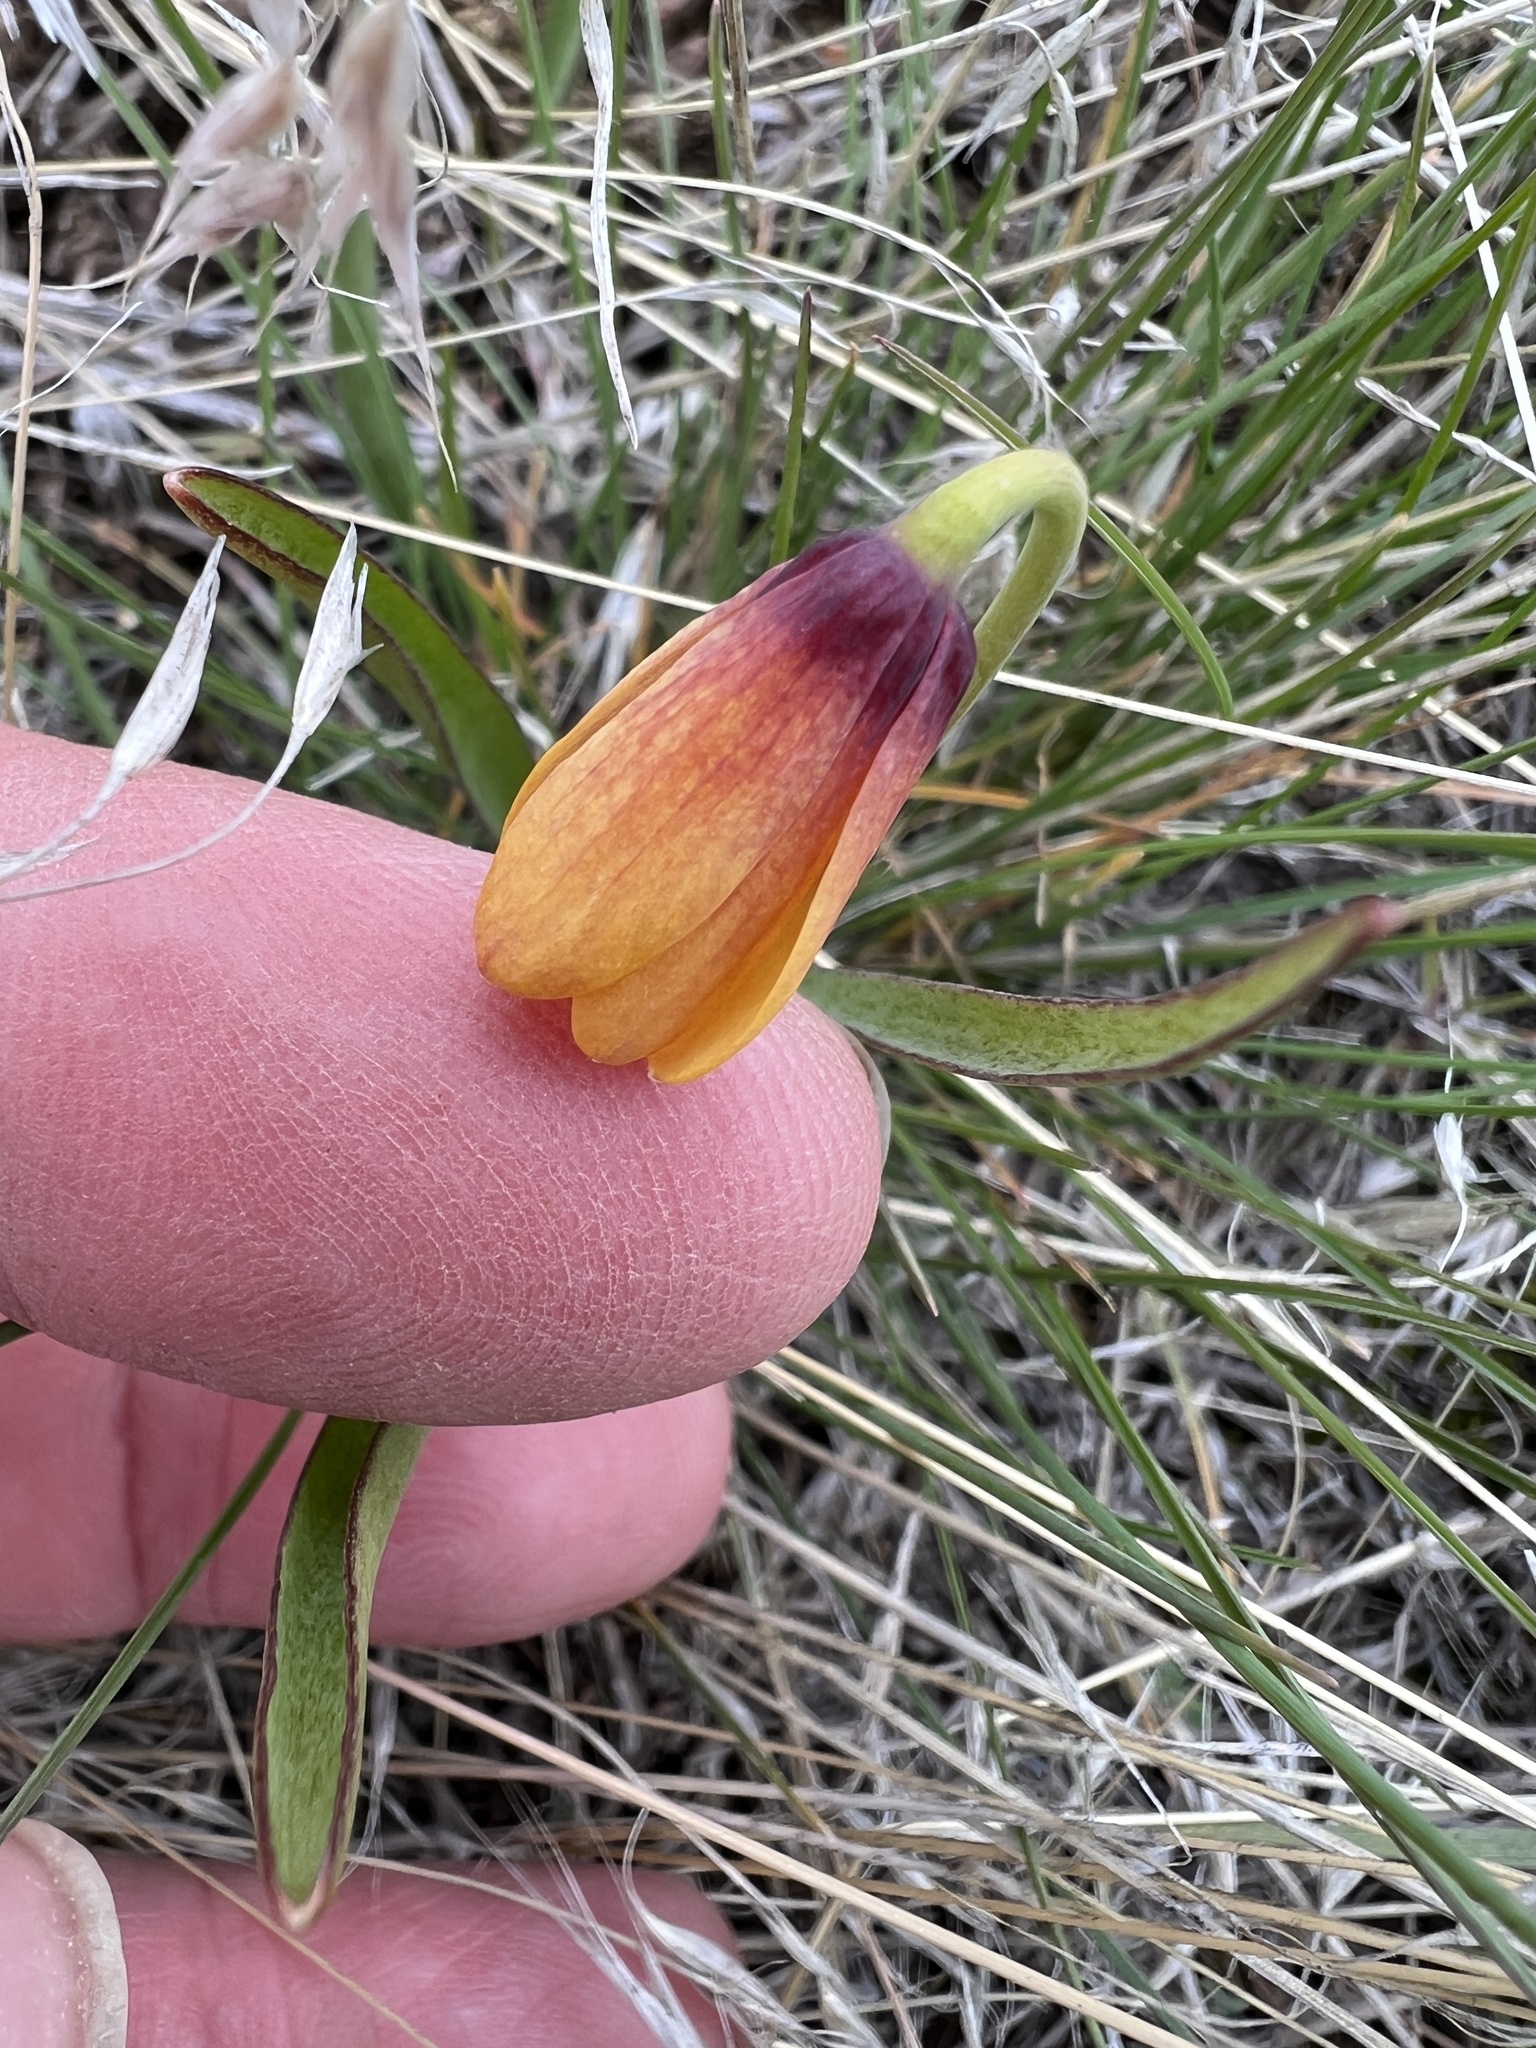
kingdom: Plantae
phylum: Tracheophyta
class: Liliopsida
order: Liliales
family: Liliaceae
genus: Fritillaria
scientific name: Fritillaria pudica
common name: Yellow fritillary
